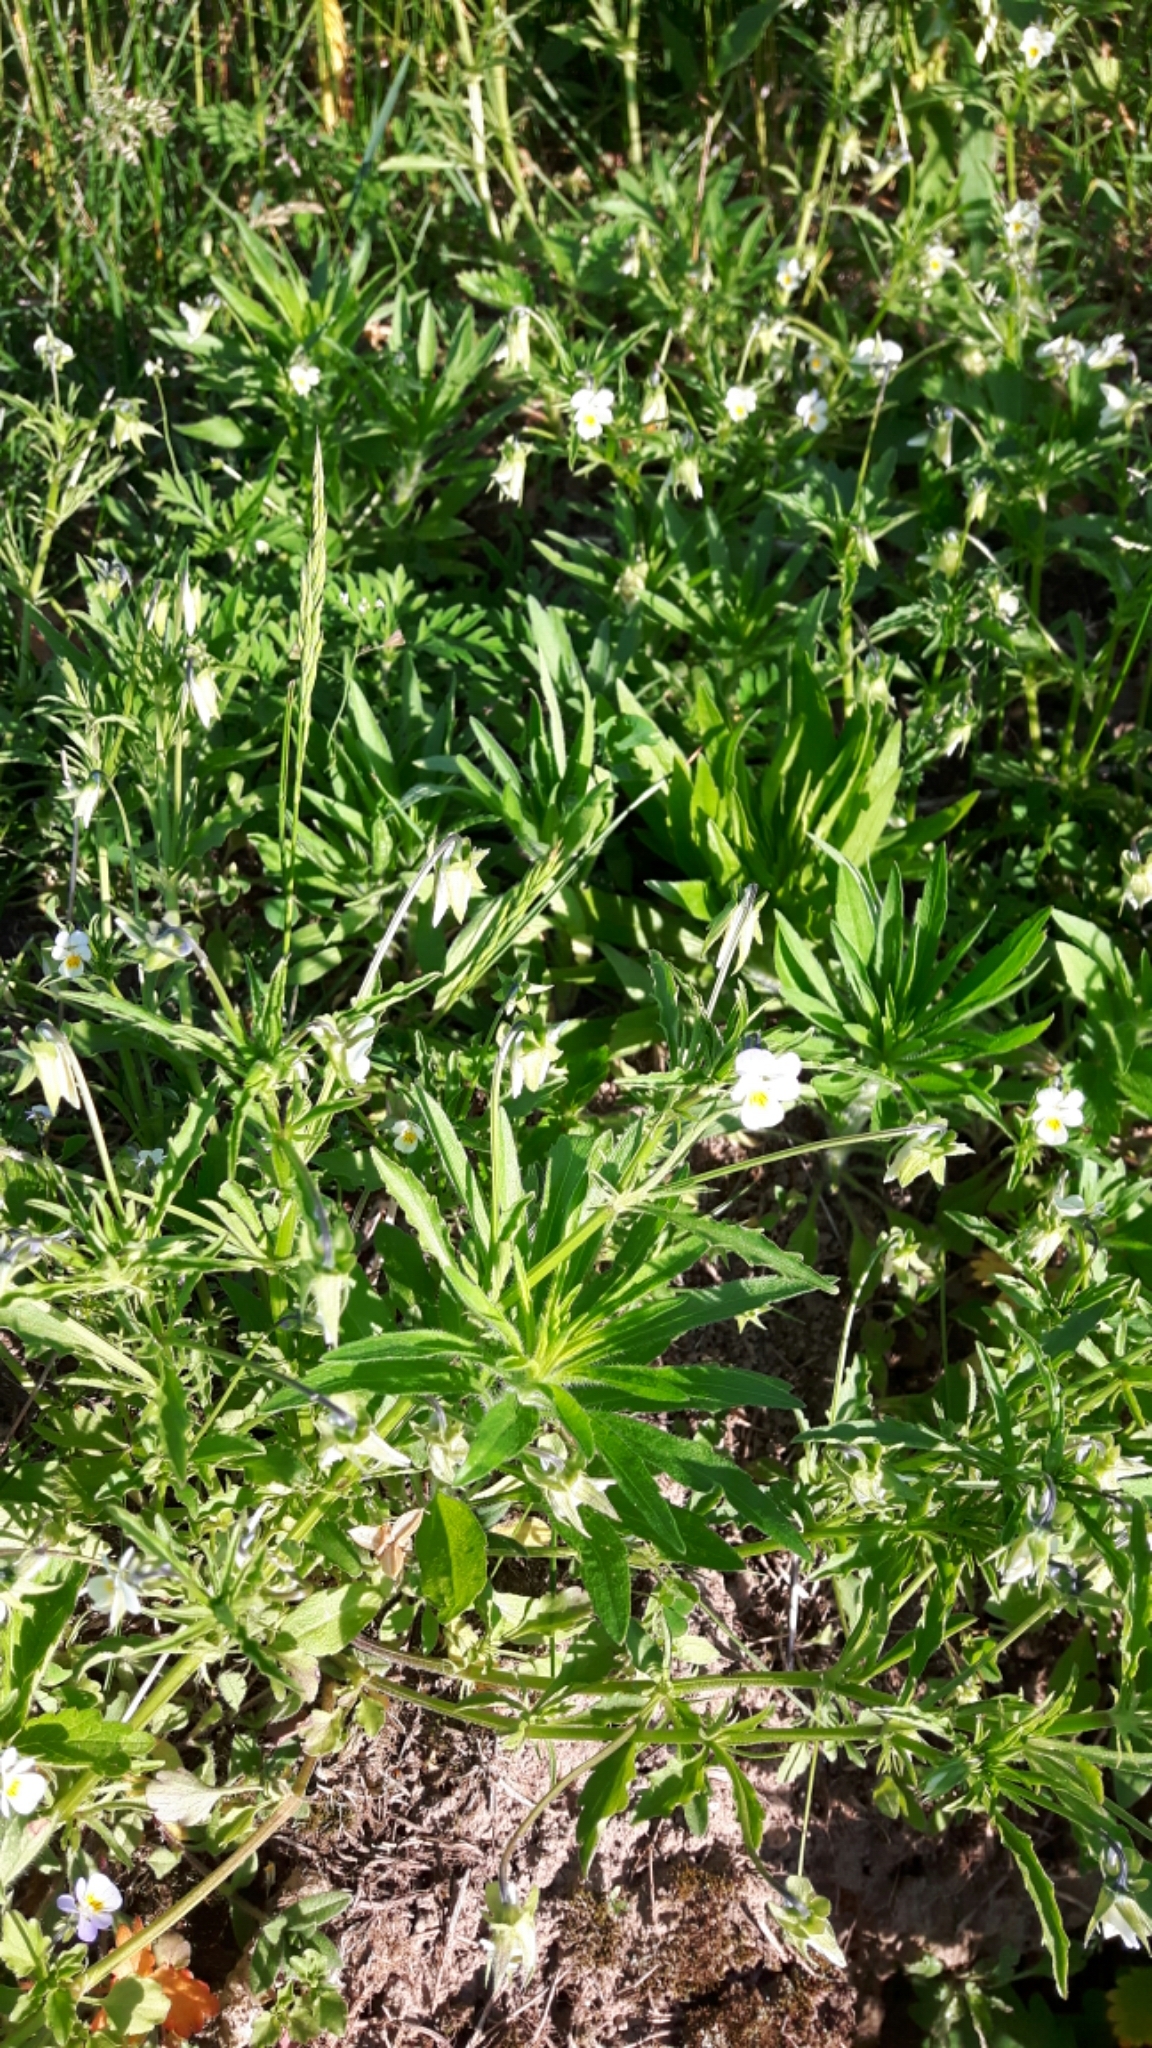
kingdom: Plantae
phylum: Tracheophyta
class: Magnoliopsida
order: Malpighiales
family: Violaceae
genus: Viola
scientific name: Viola arvensis
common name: Field pansy
